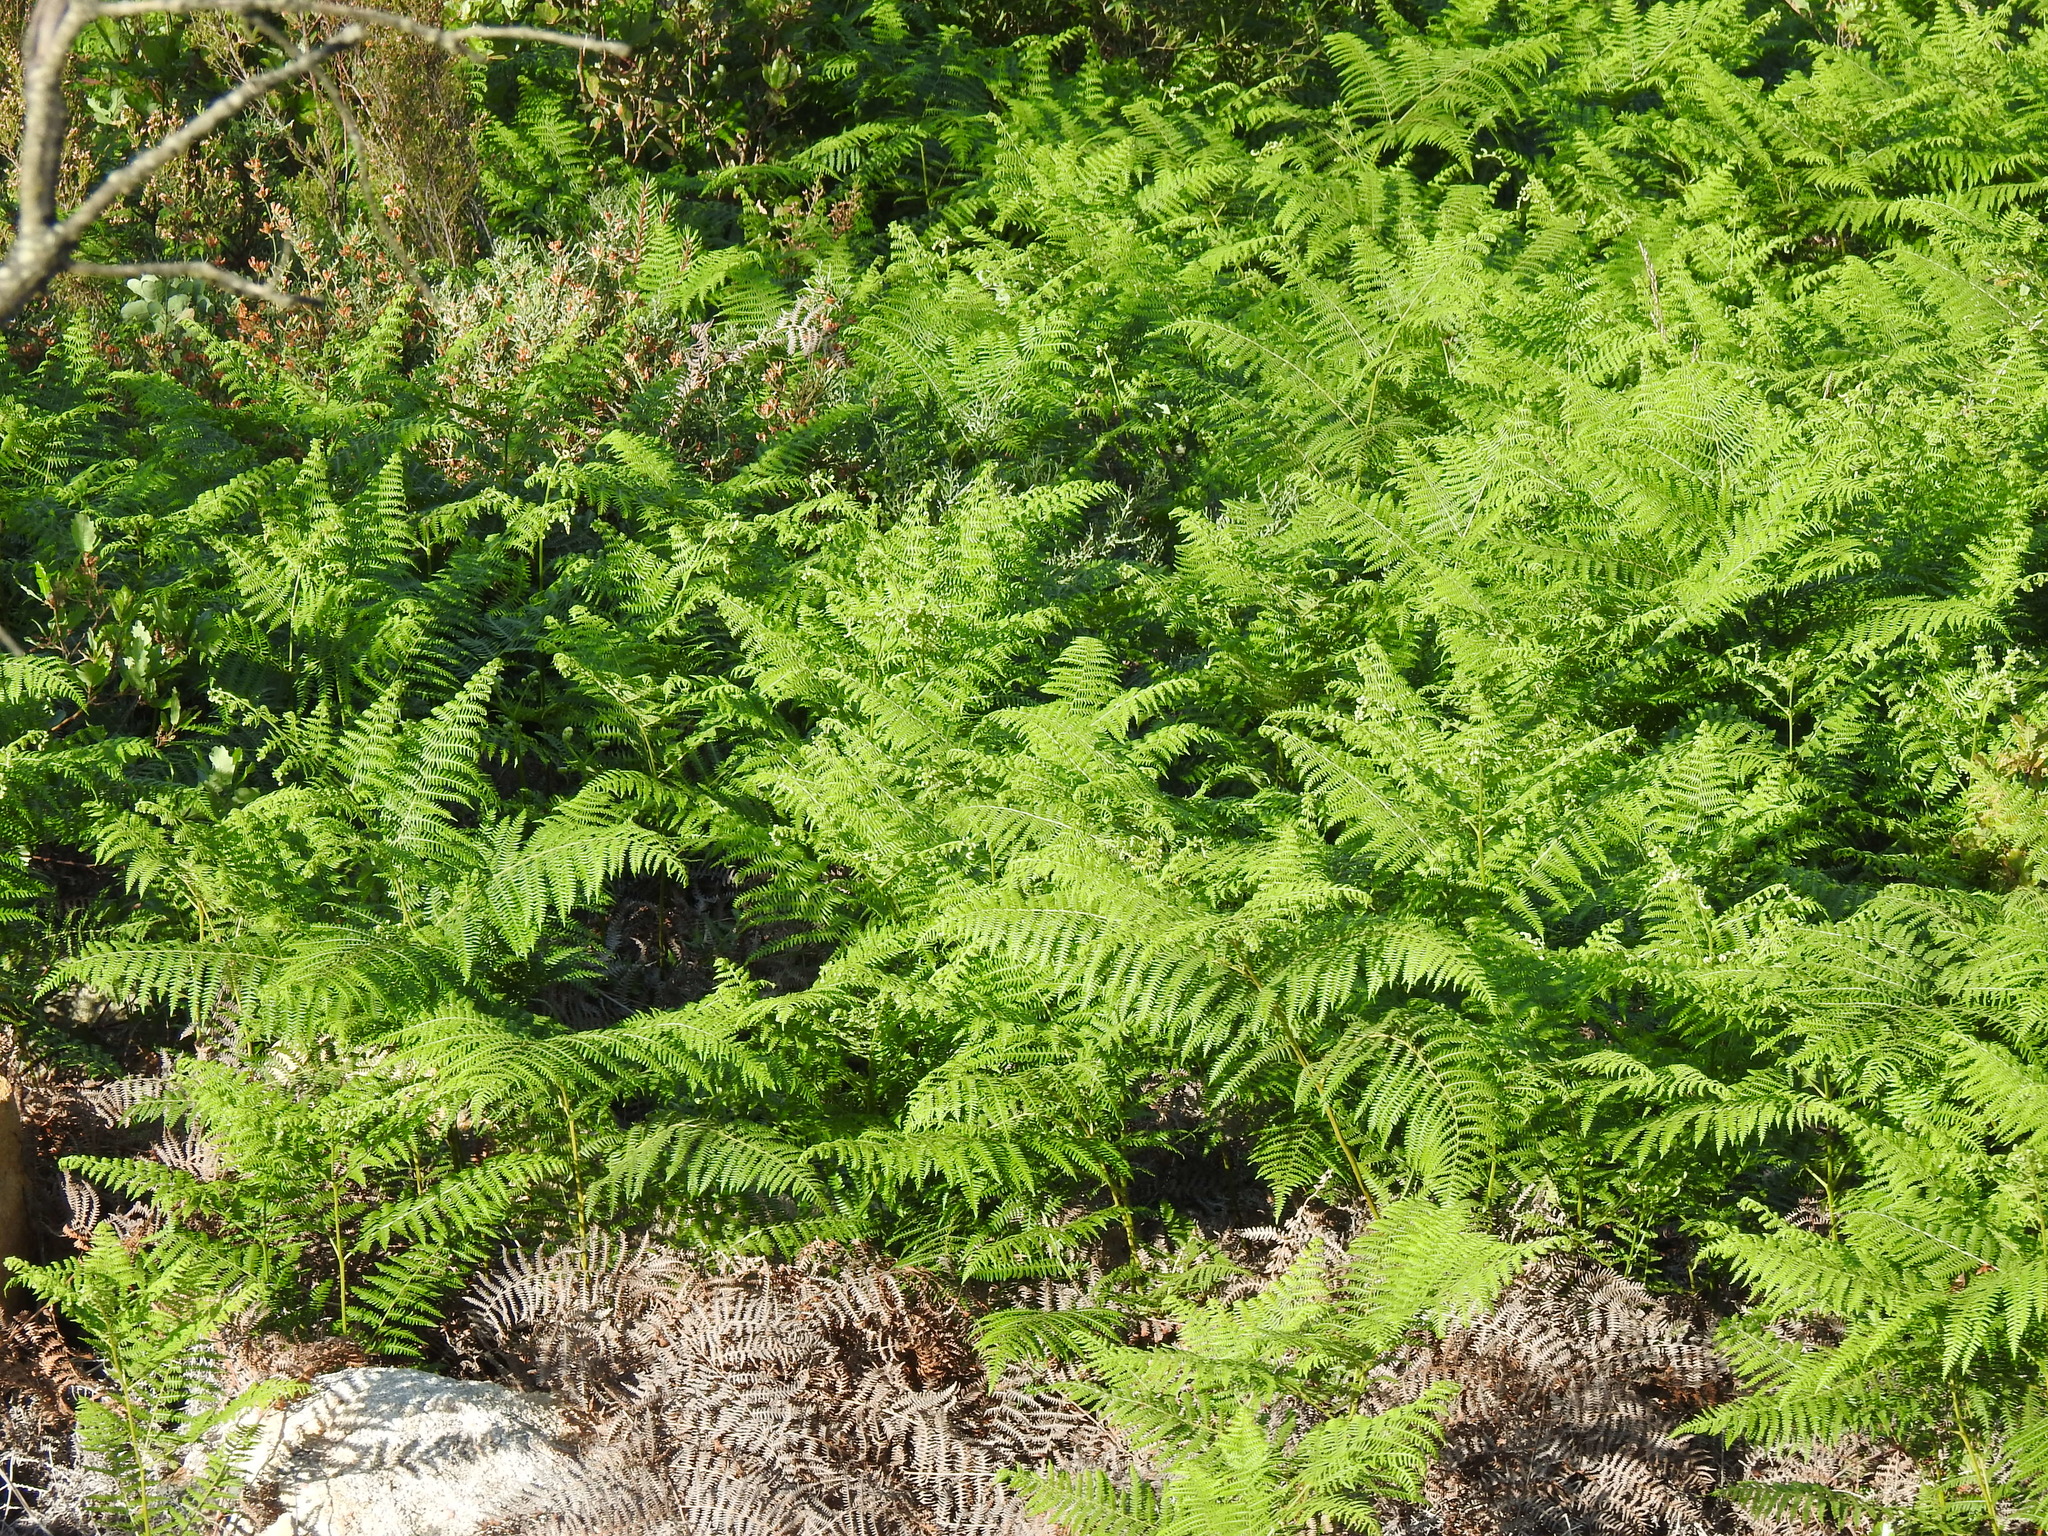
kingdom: Plantae
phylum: Tracheophyta
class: Polypodiopsida
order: Polypodiales
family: Dennstaedtiaceae
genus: Pteridium
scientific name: Pteridium aquilinum
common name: Bracken
